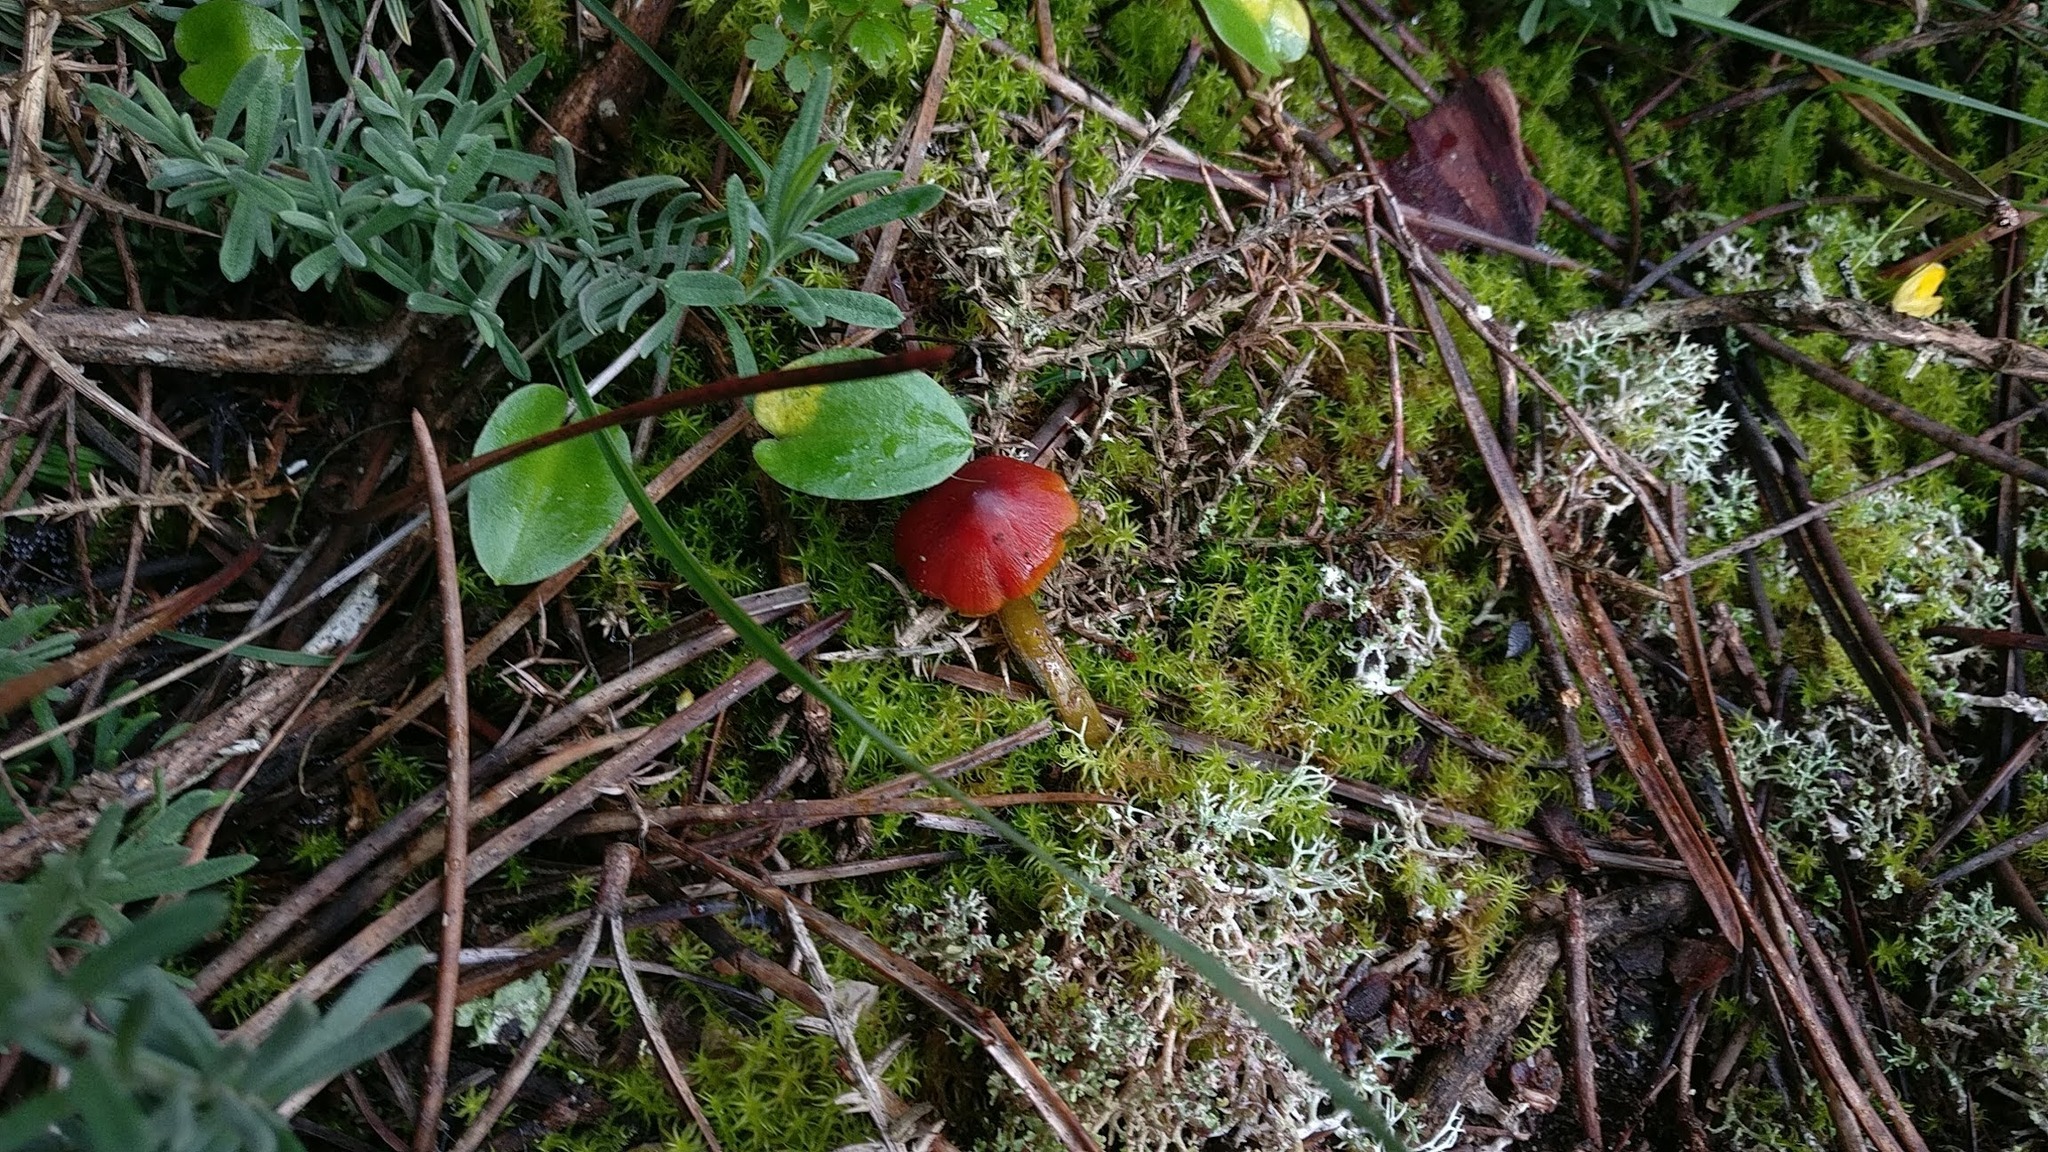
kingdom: Fungi
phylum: Basidiomycota
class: Agaricomycetes
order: Agaricales
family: Hygrophoraceae
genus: Hygrocybe
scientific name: Hygrocybe conica
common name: Blackening wax-cap
